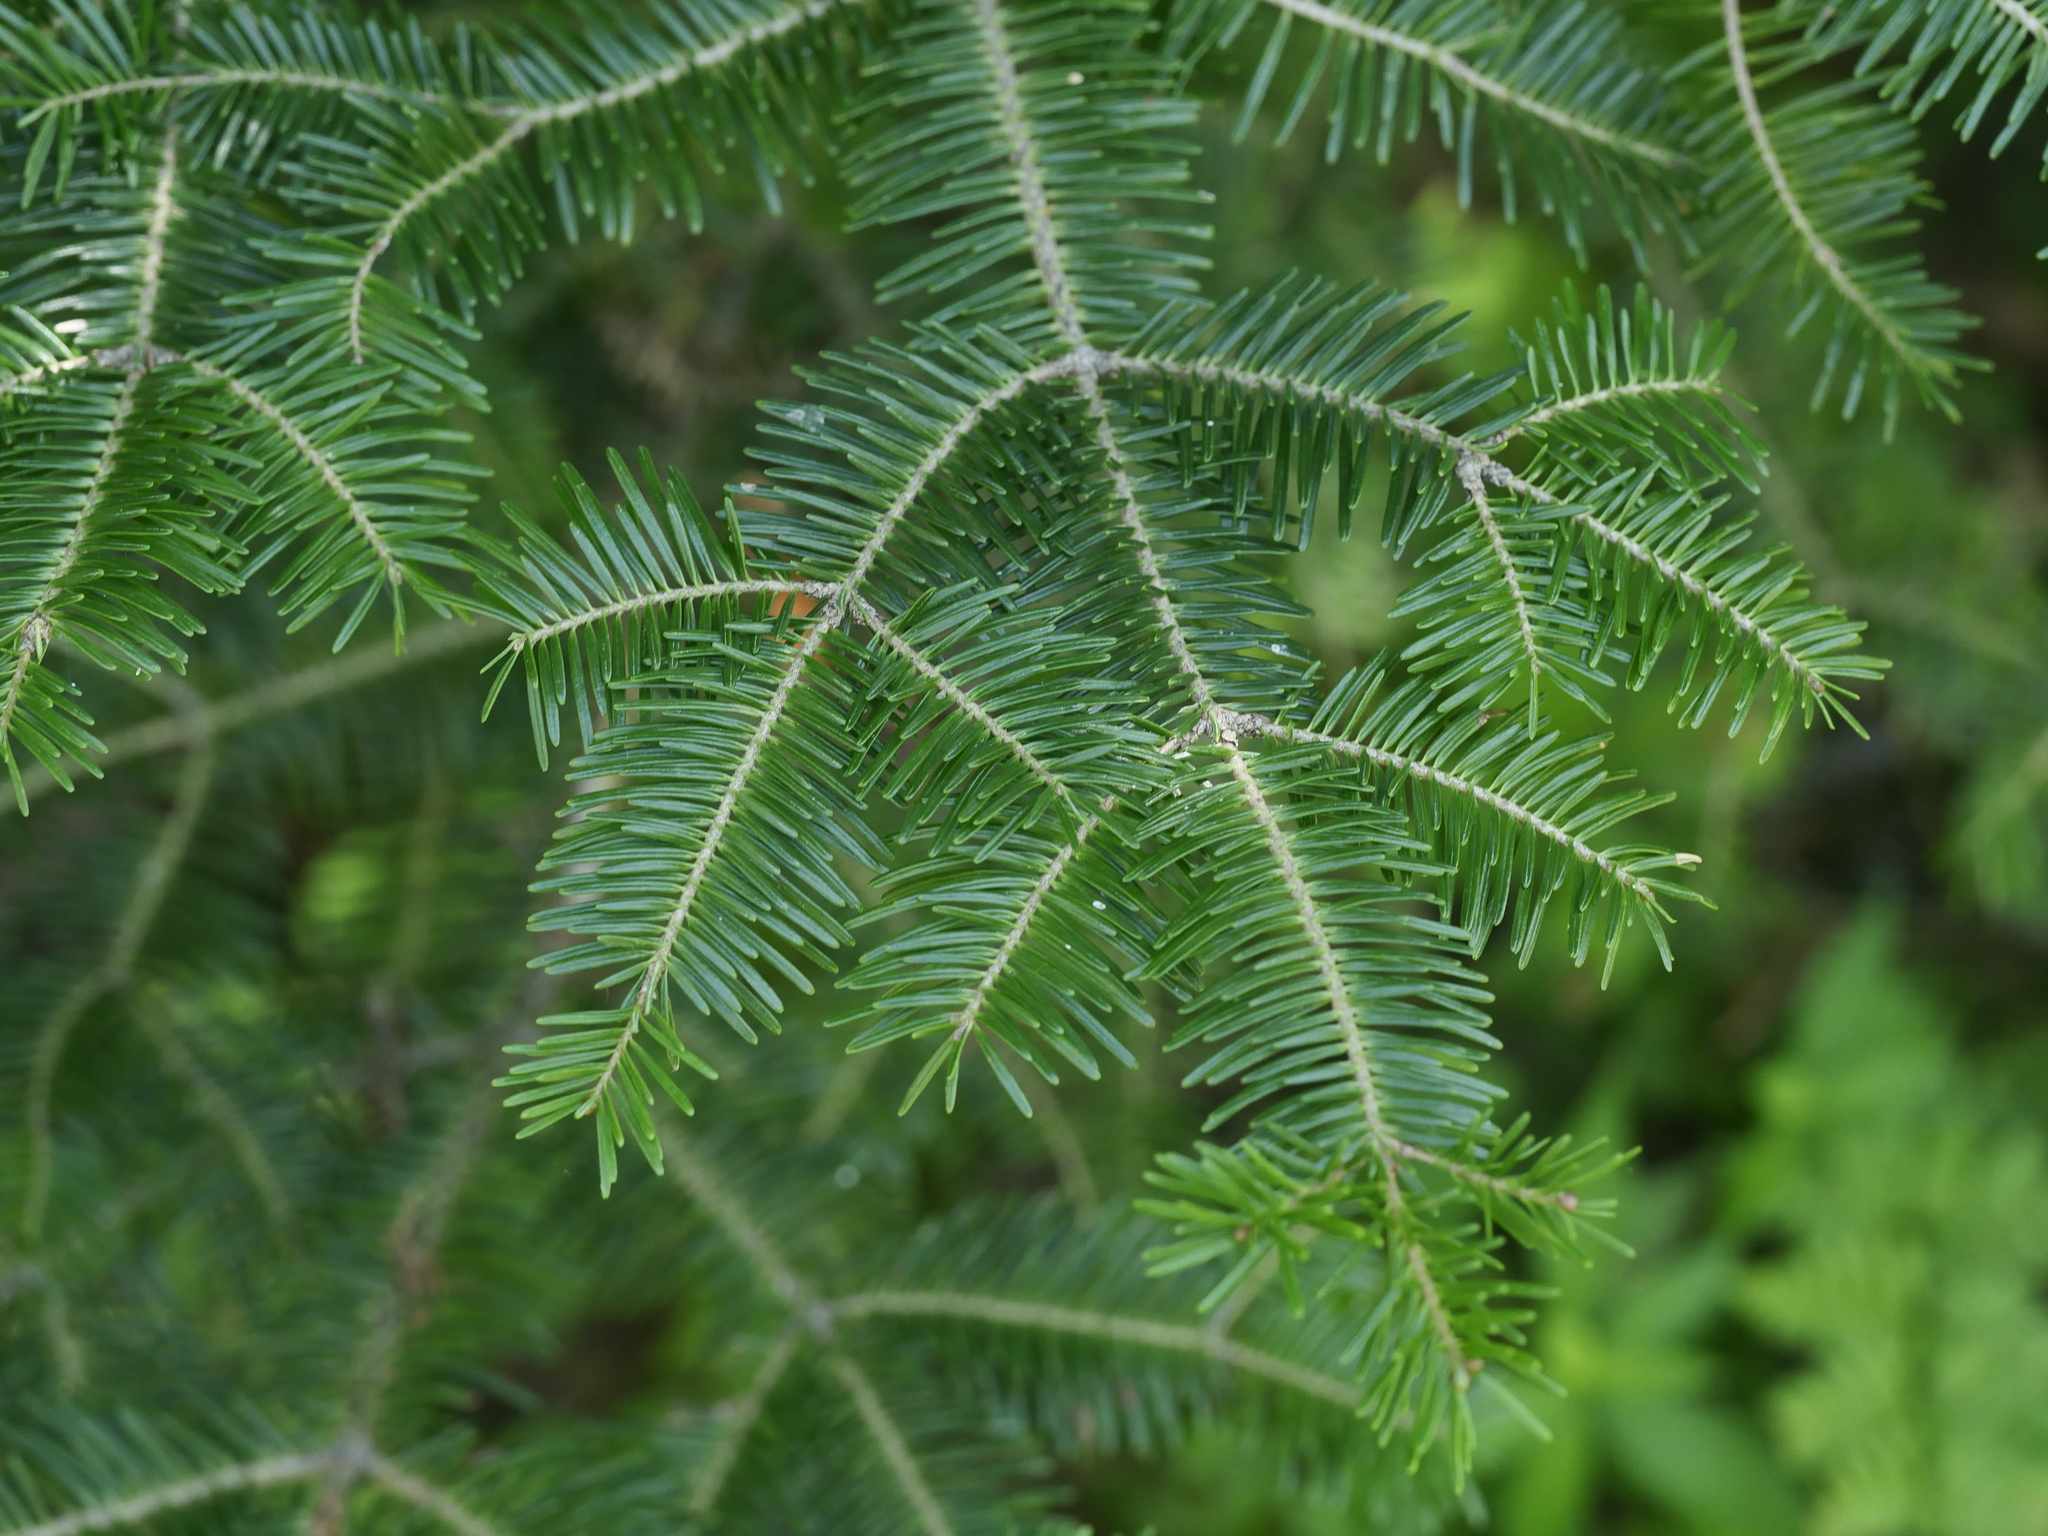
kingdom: Plantae
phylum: Tracheophyta
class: Pinopsida
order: Pinales
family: Pinaceae
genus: Abies
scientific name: Abies balsamea
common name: Balsam fir
